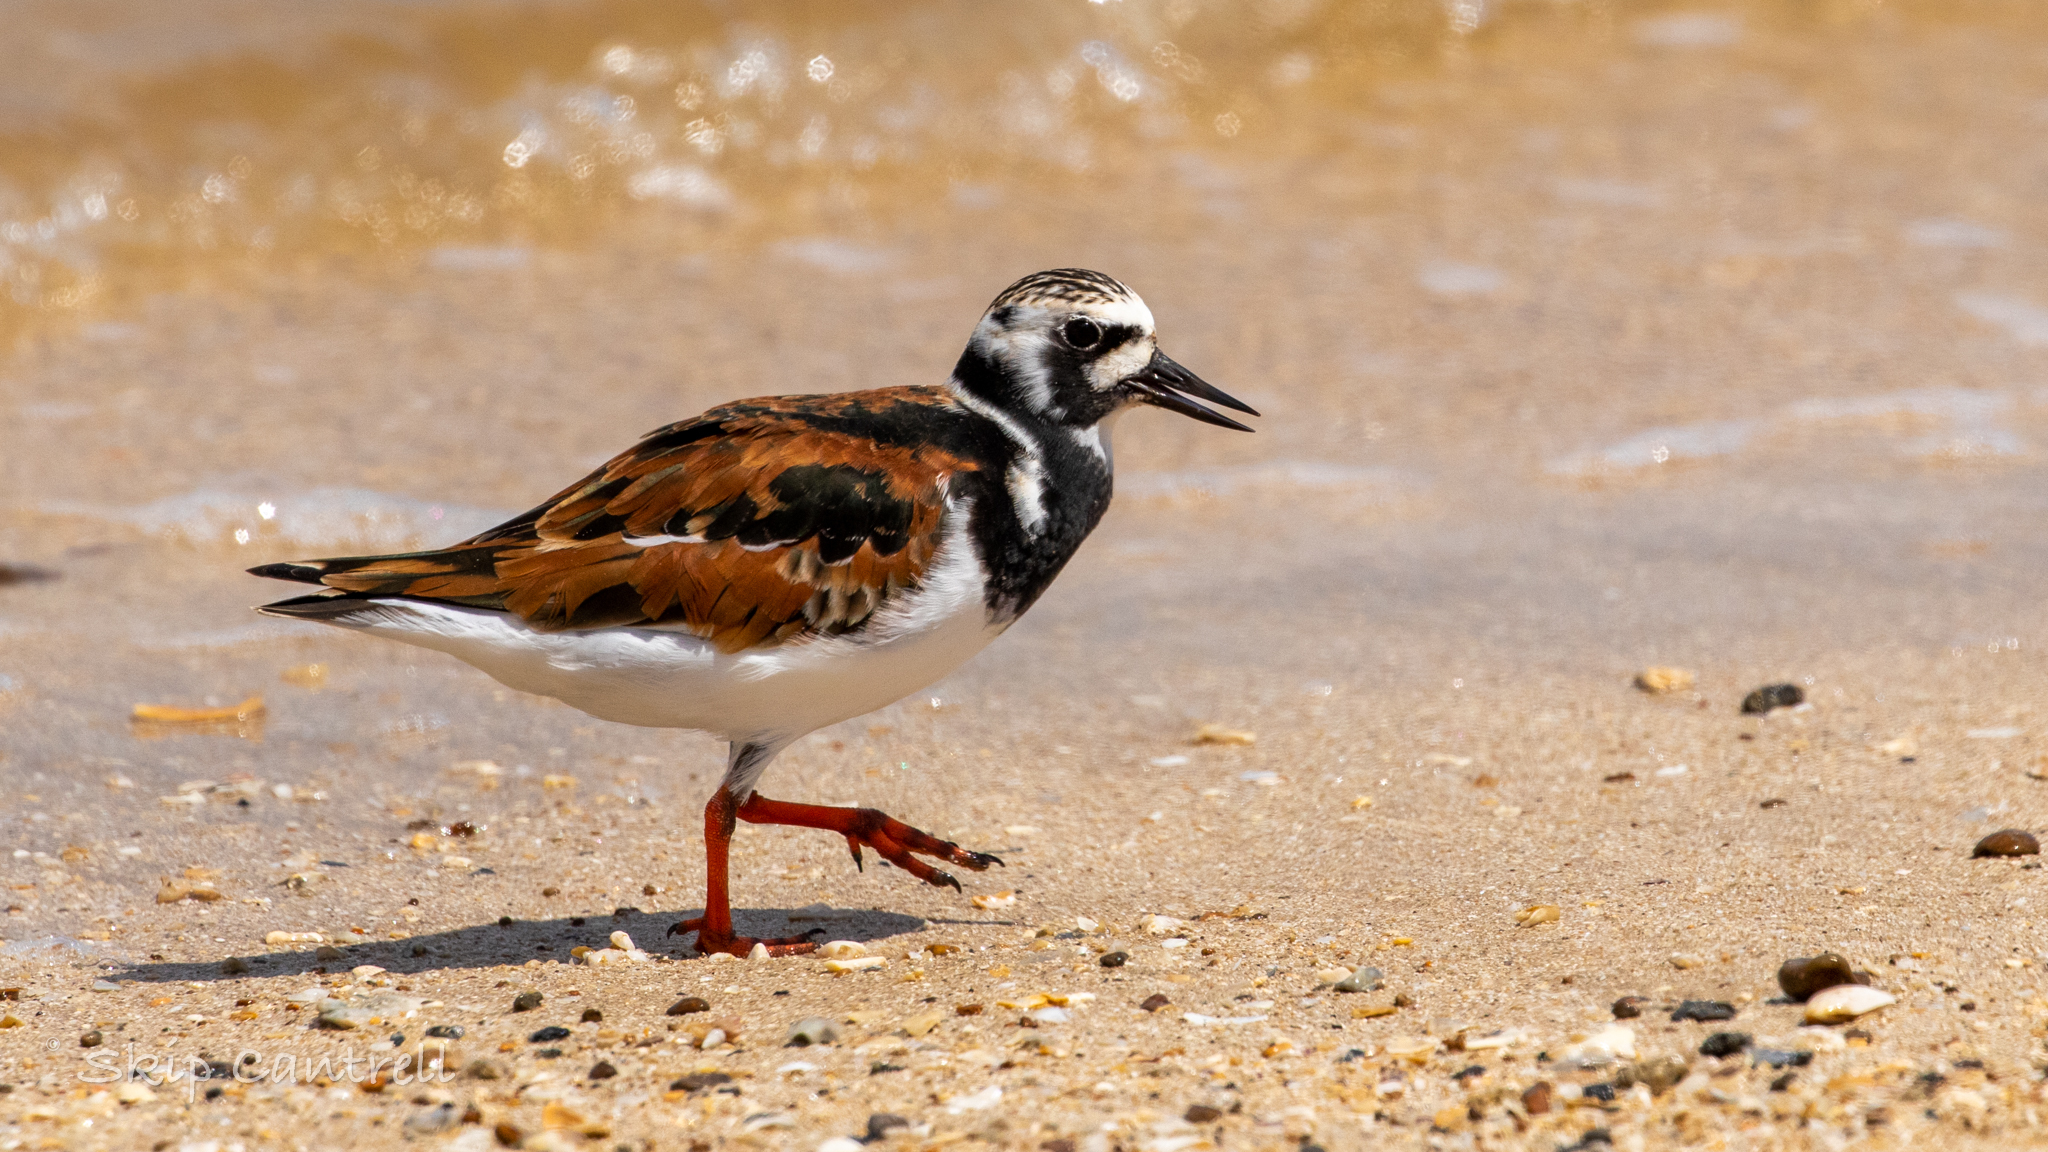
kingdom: Animalia
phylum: Chordata
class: Aves
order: Charadriiformes
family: Scolopacidae
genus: Arenaria
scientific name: Arenaria interpres
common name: Ruddy turnstone
